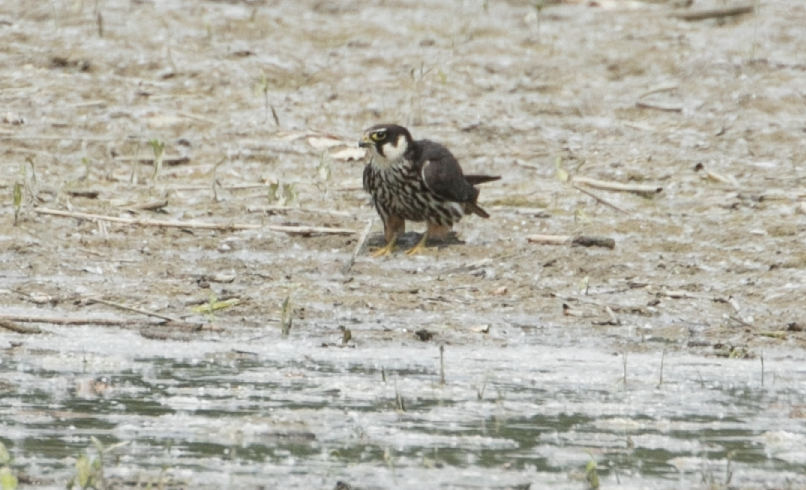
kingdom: Animalia
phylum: Chordata
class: Aves
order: Falconiformes
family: Falconidae
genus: Falco
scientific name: Falco subbuteo
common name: Eurasian hobby
